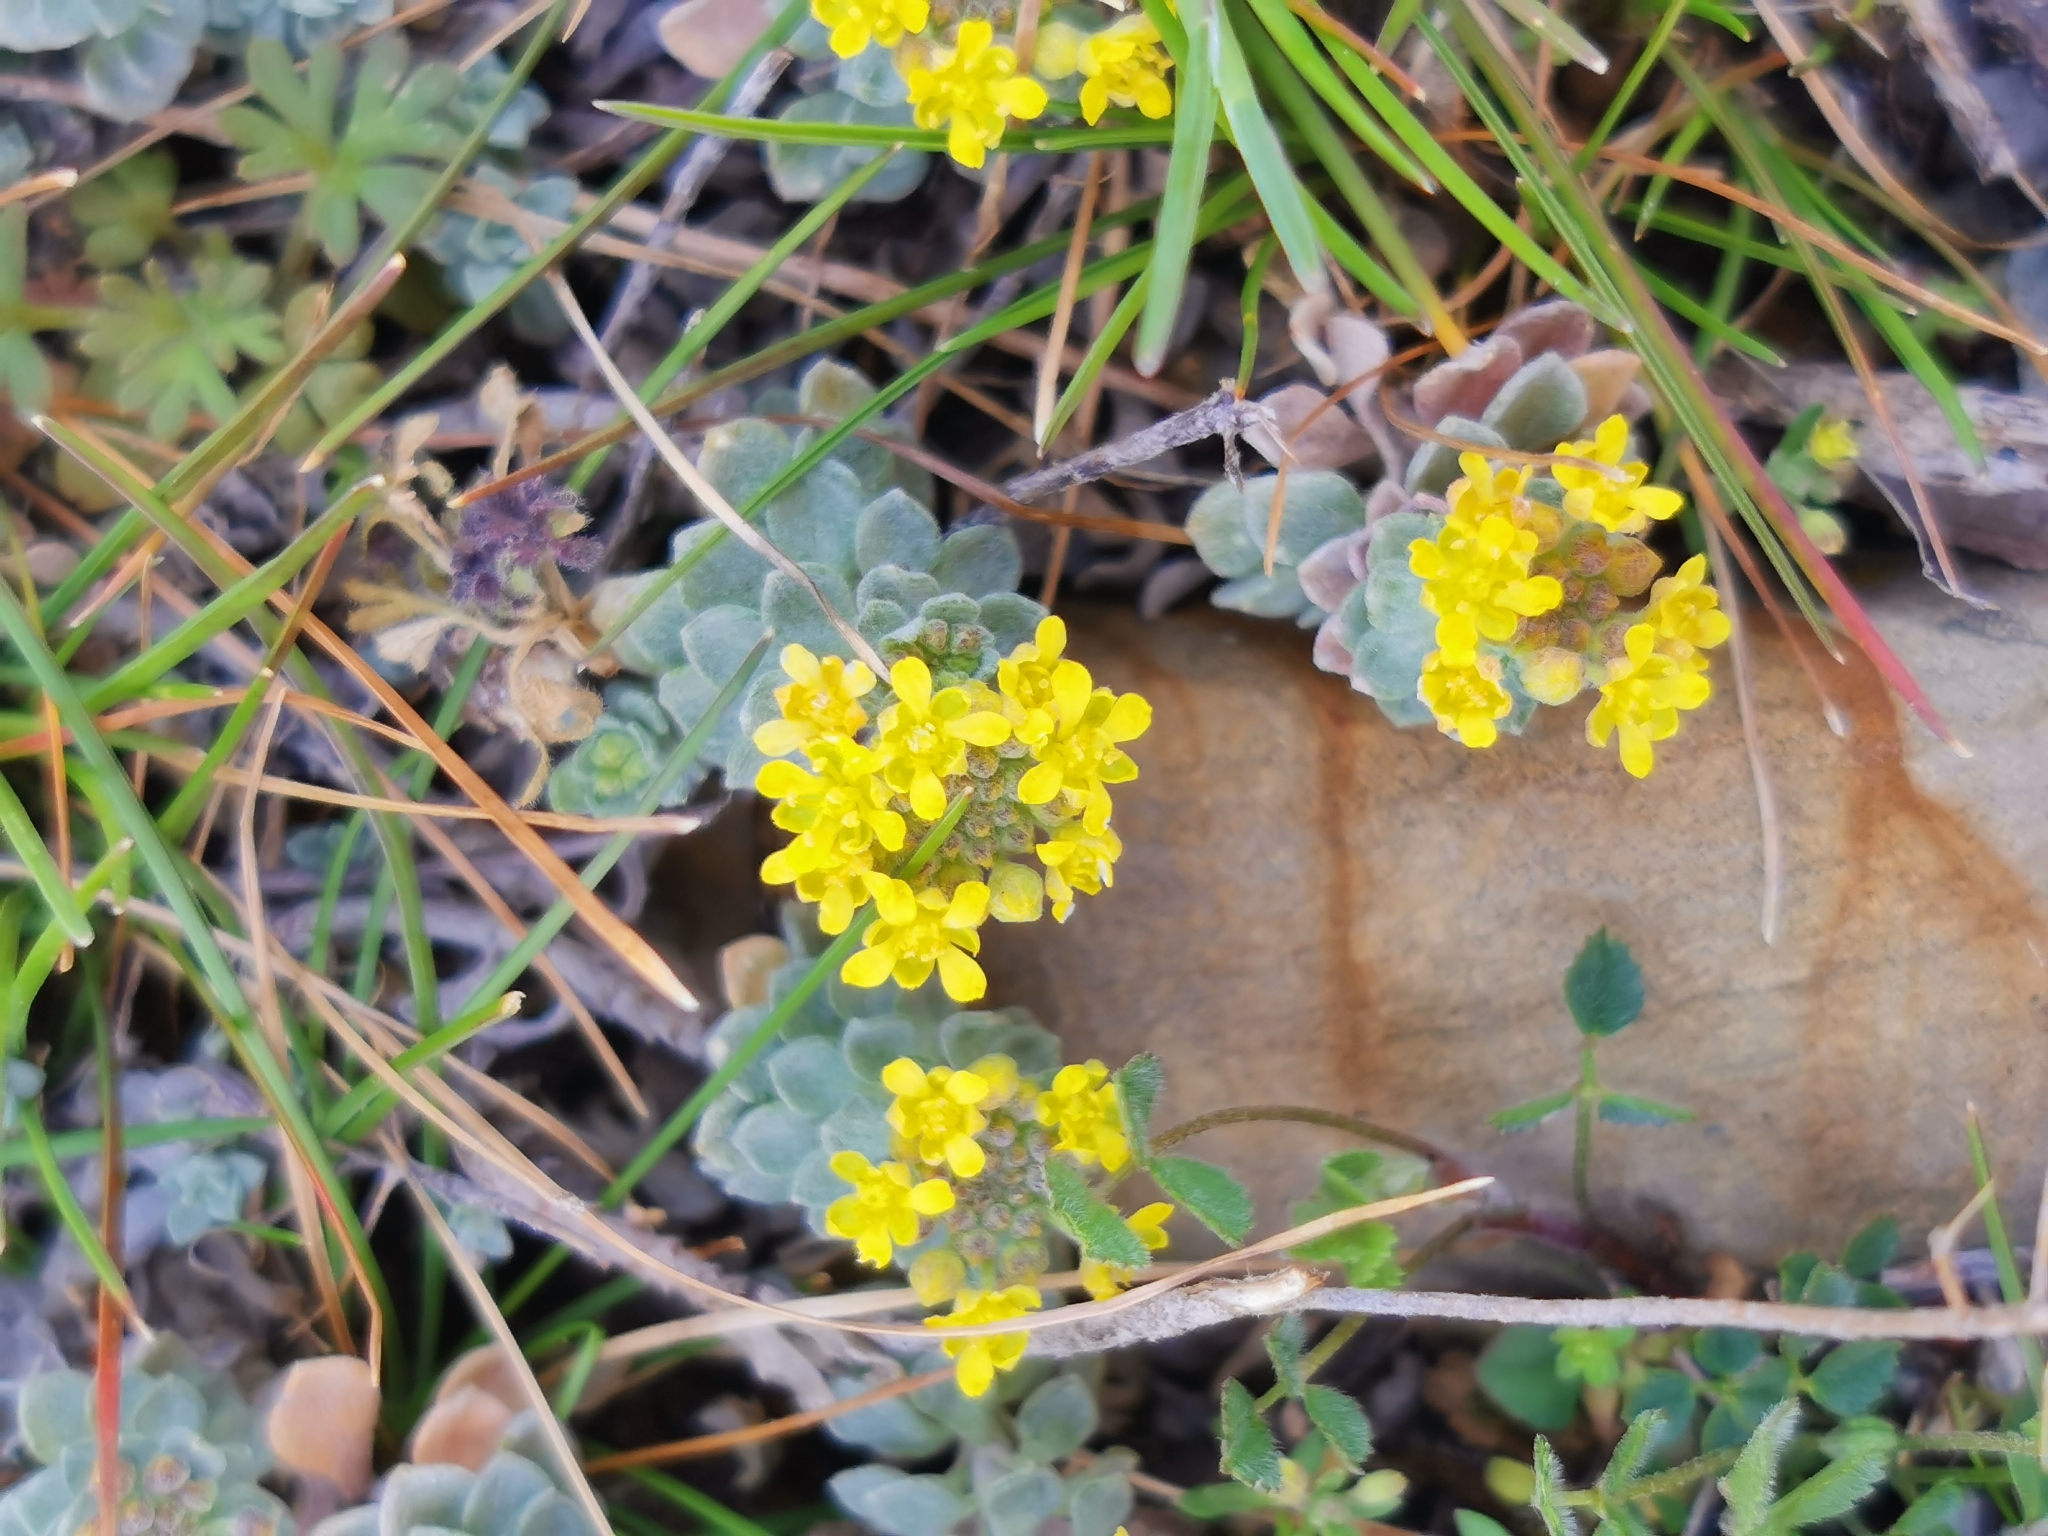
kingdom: Plantae
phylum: Tracheophyta
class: Magnoliopsida
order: Brassicales
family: Brassicaceae
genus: Odontarrhena
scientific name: Odontarrhena obtusifolia
